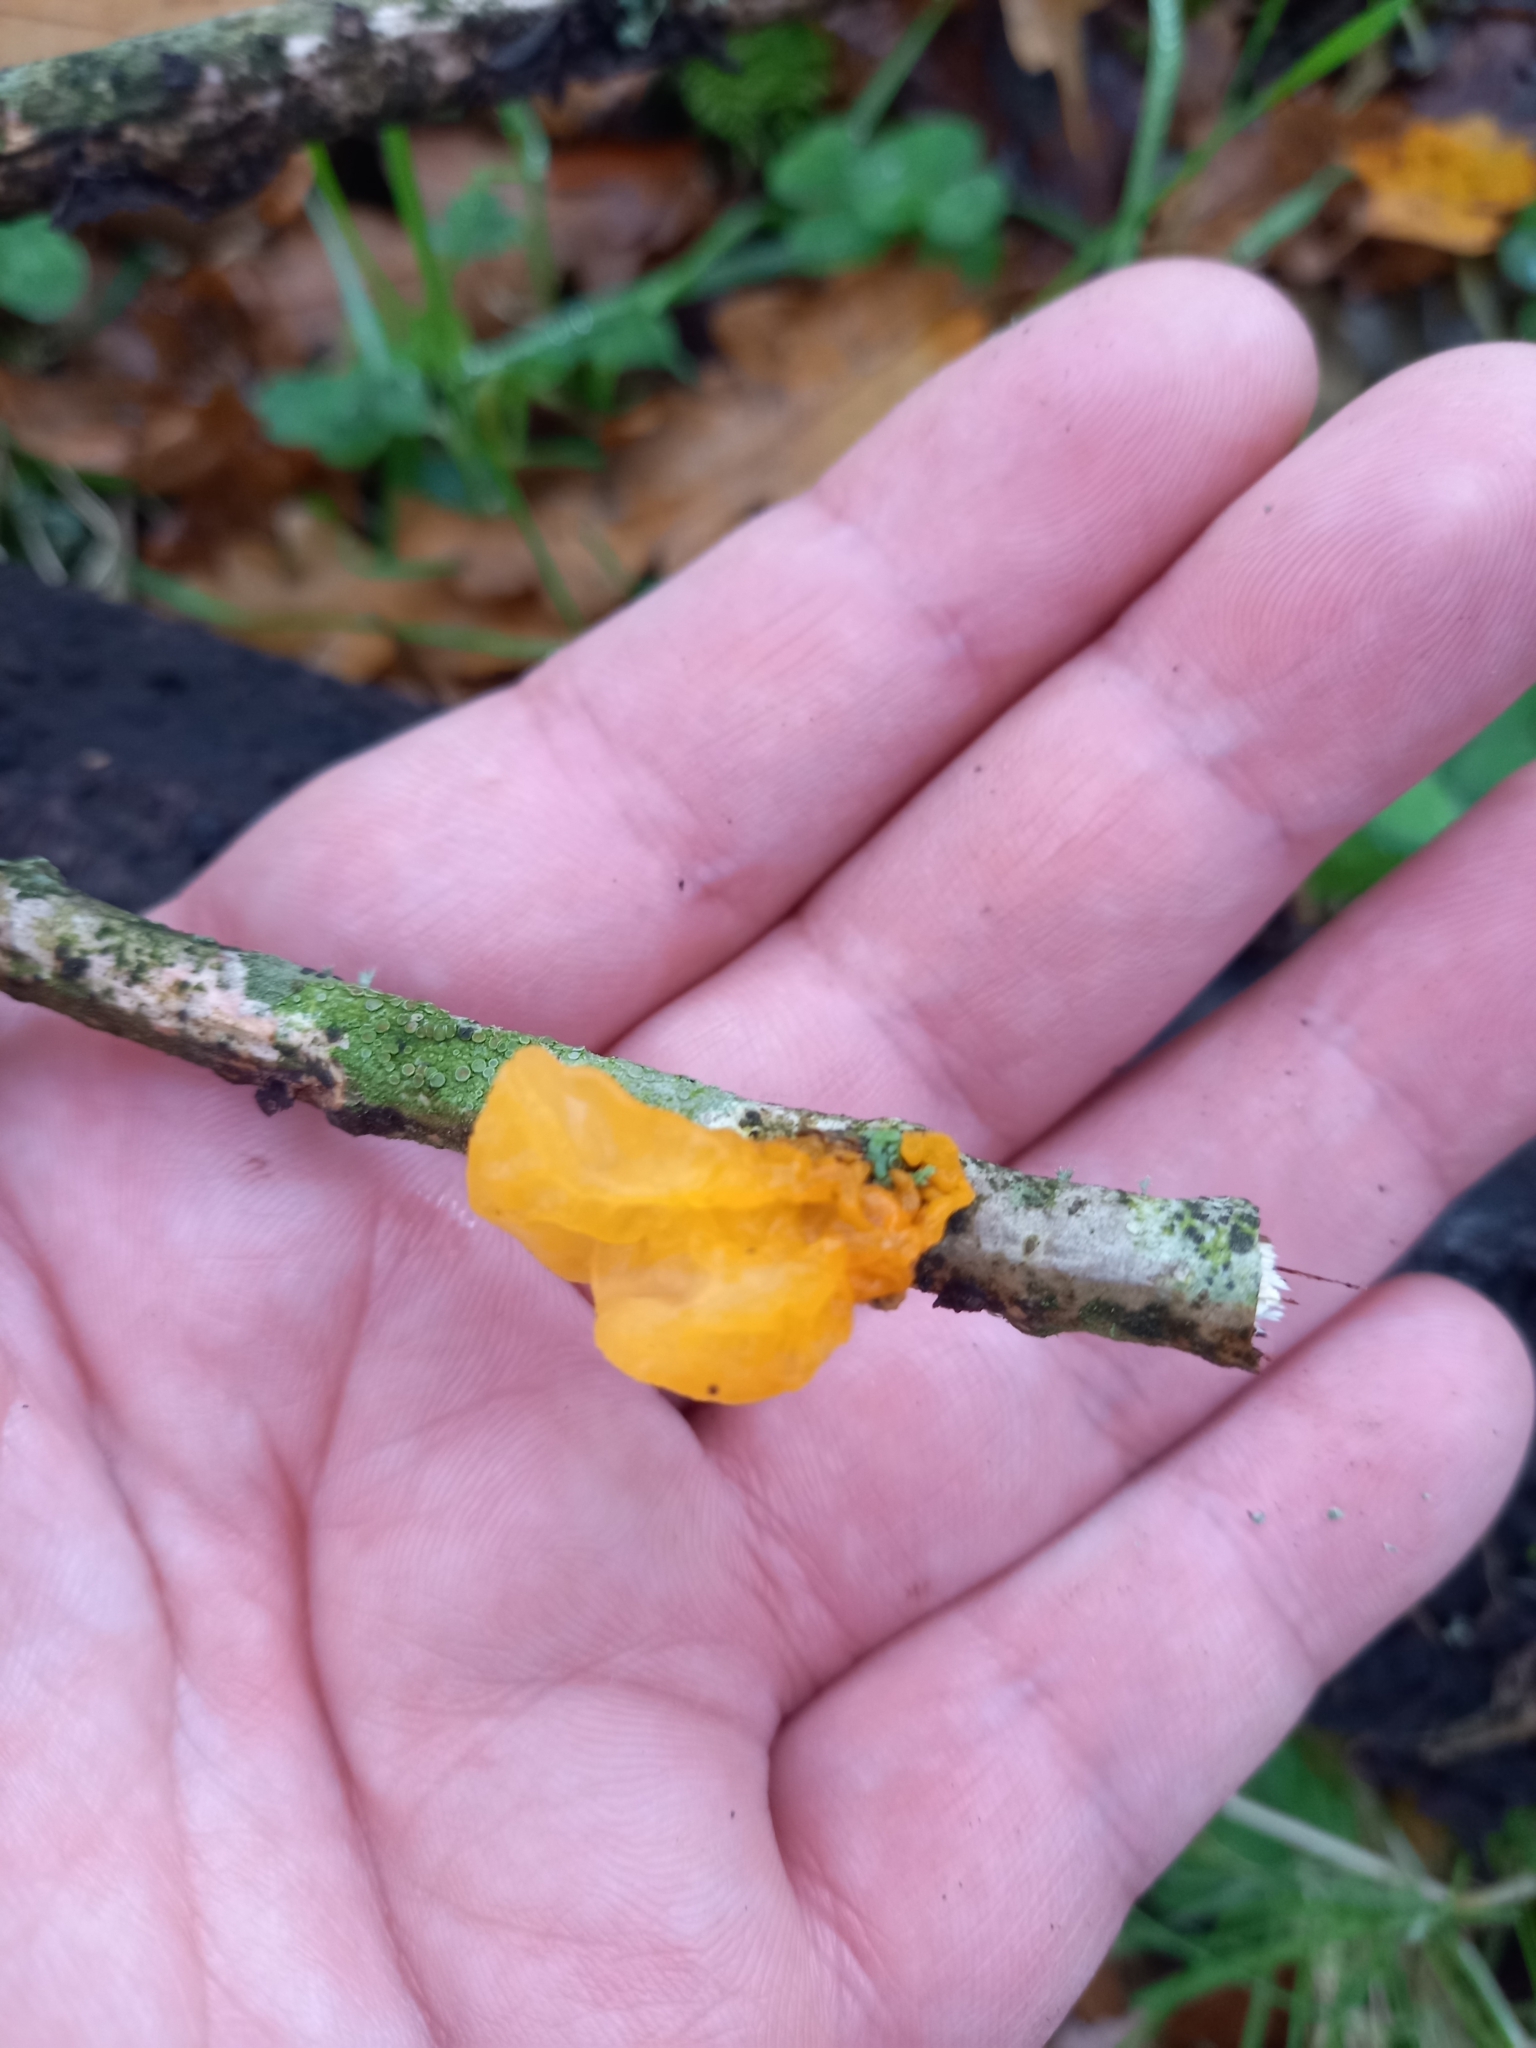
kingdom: Fungi
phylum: Basidiomycota
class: Tremellomycetes
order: Tremellales
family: Tremellaceae
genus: Tremella
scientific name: Tremella mesenterica
